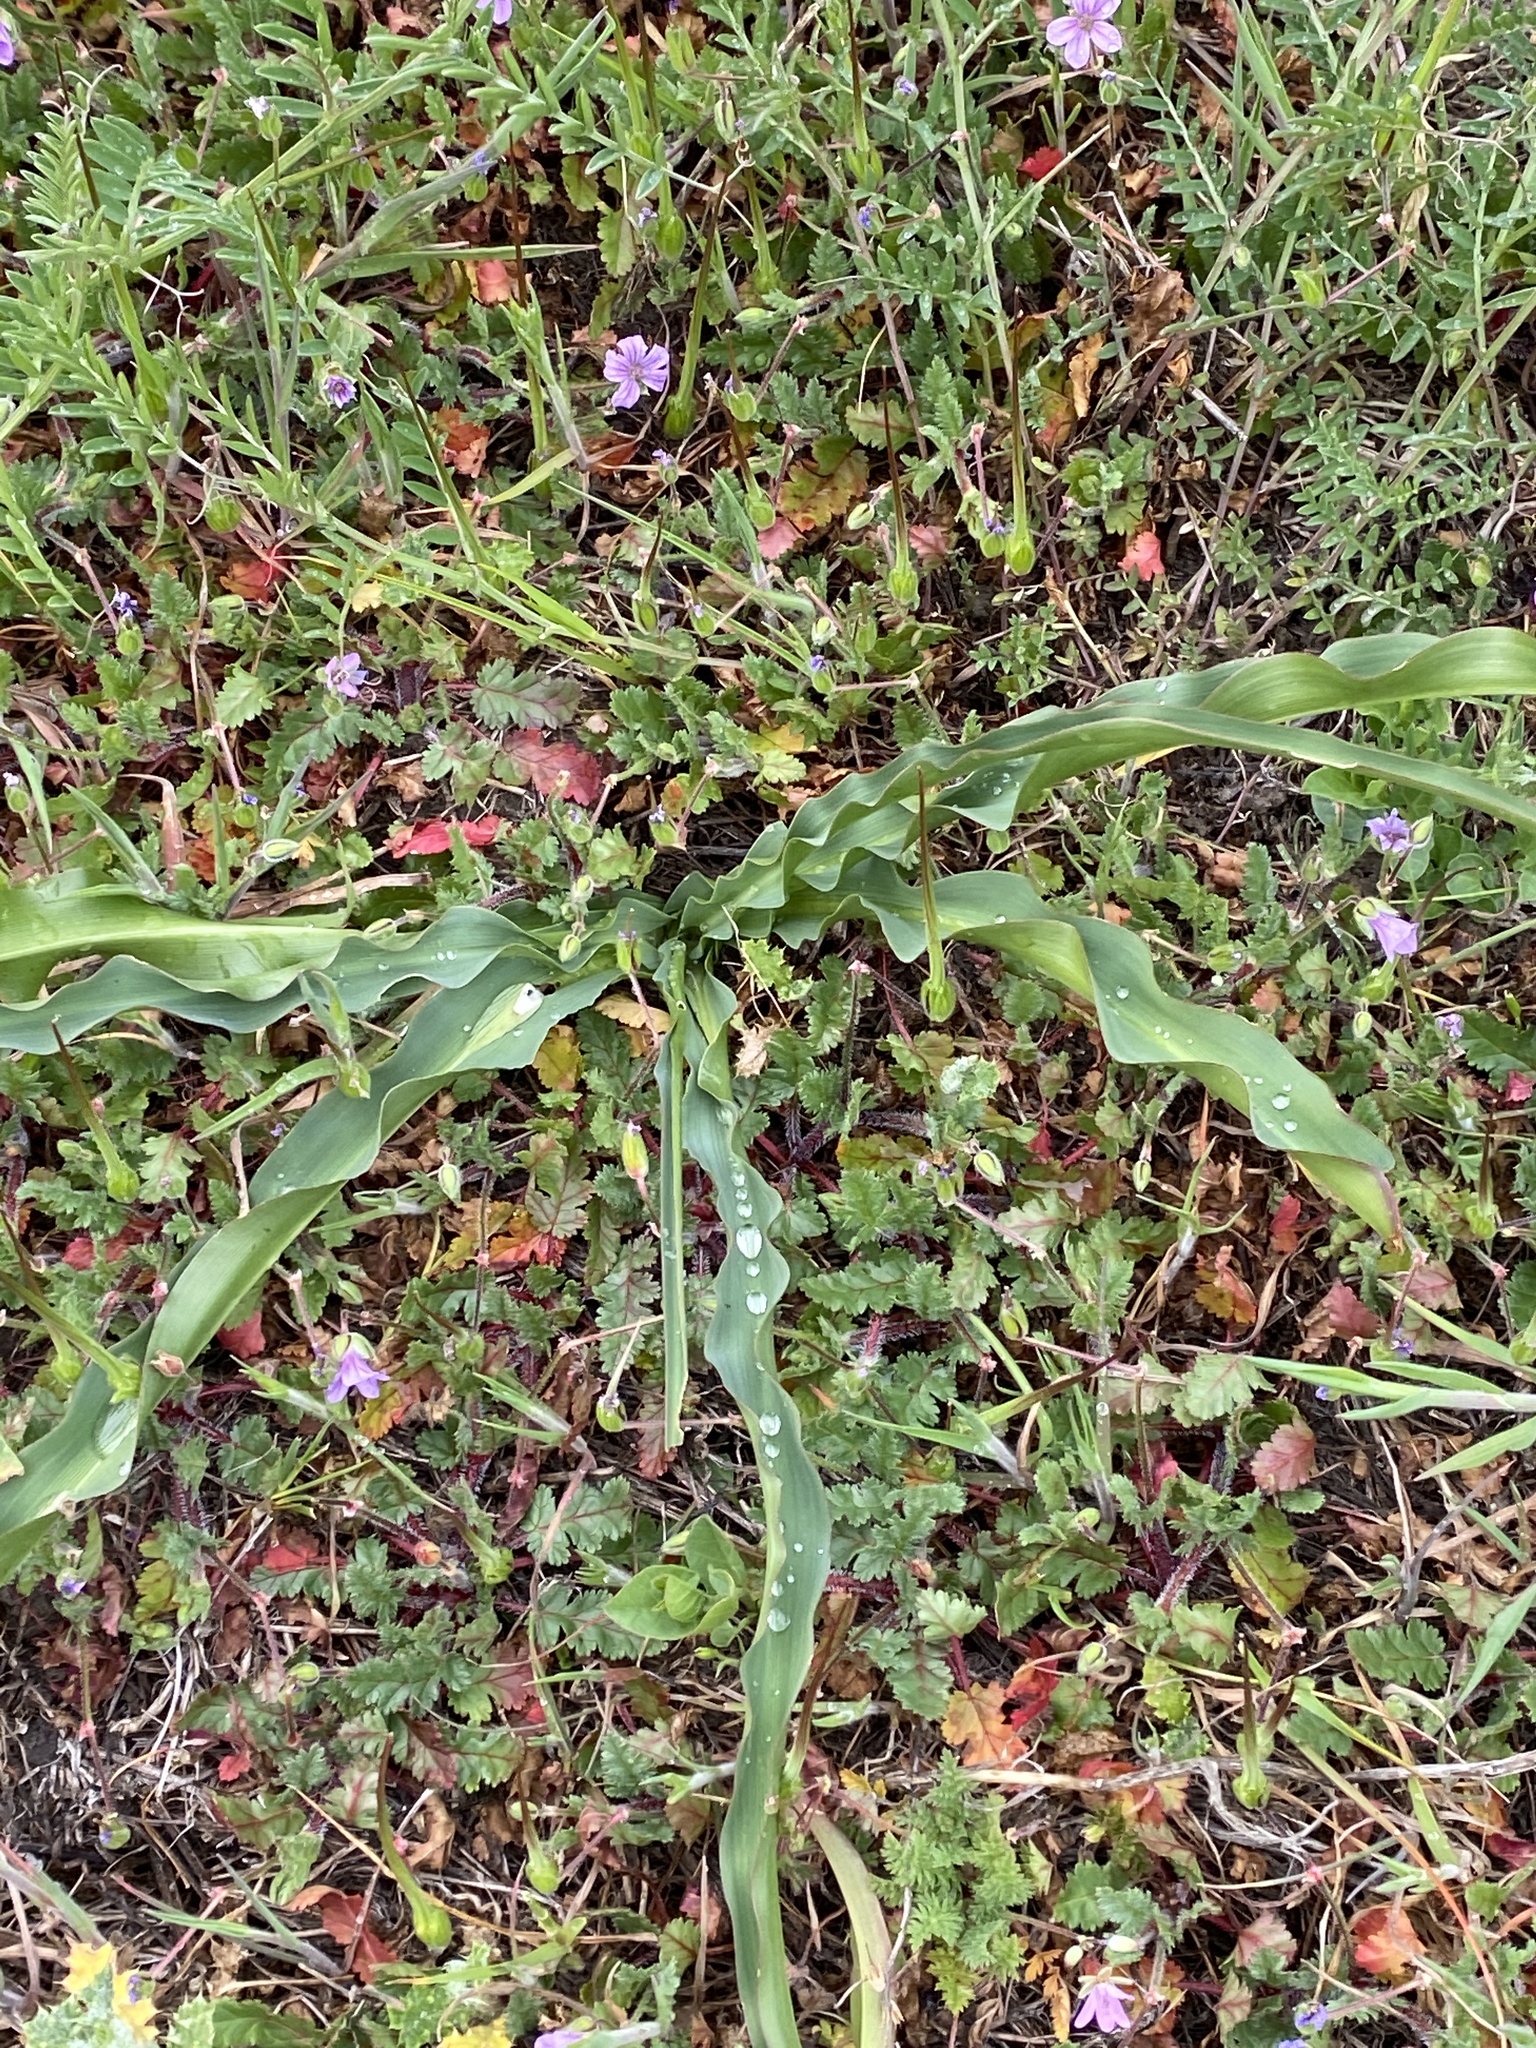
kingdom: Plantae
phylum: Tracheophyta
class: Liliopsida
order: Asparagales
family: Asparagaceae
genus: Chlorogalum
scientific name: Chlorogalum pomeridianum
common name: Amole
